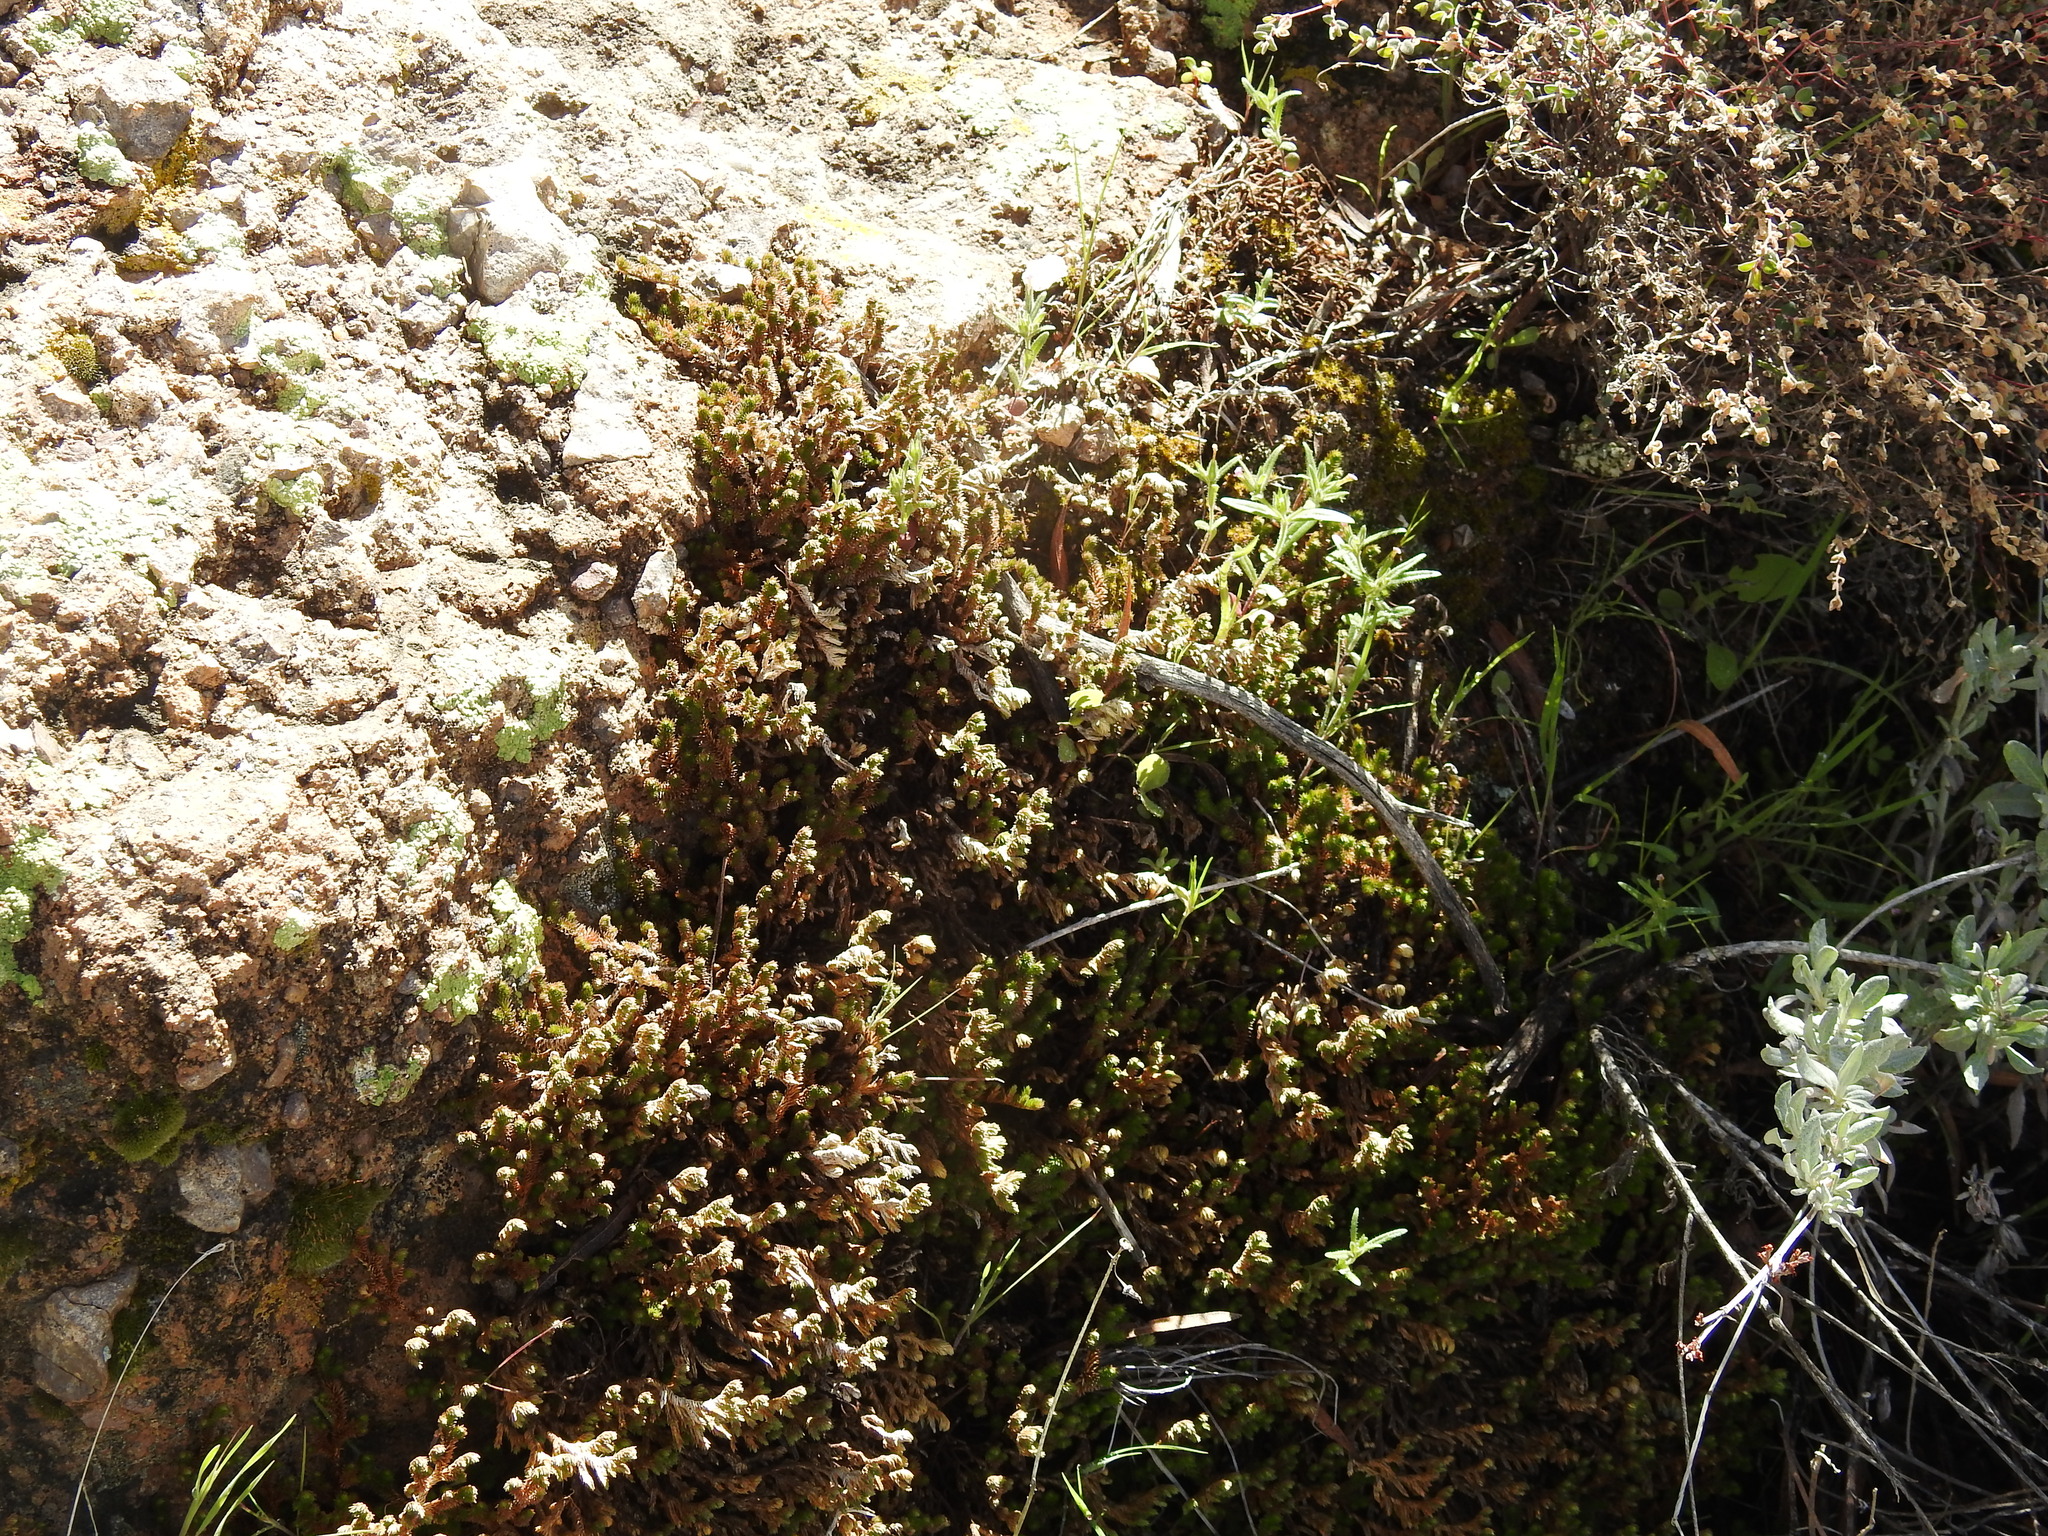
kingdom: Plantae
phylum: Tracheophyta
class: Lycopodiopsida
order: Selaginellales
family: Selaginellaceae
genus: Selaginella
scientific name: Selaginella arizonica
